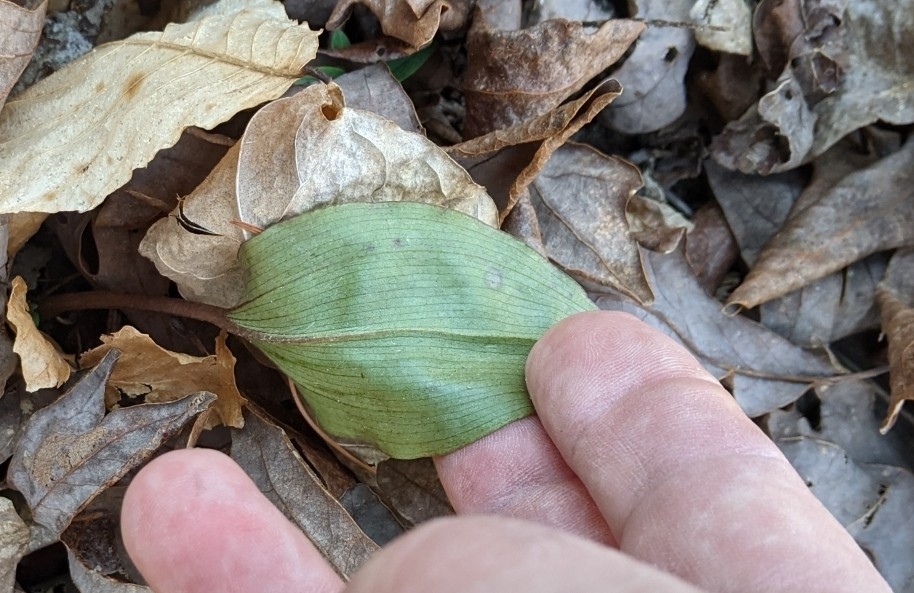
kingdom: Plantae
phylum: Tracheophyta
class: Liliopsida
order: Asparagales
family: Orchidaceae
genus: Tipularia
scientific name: Tipularia discolor
